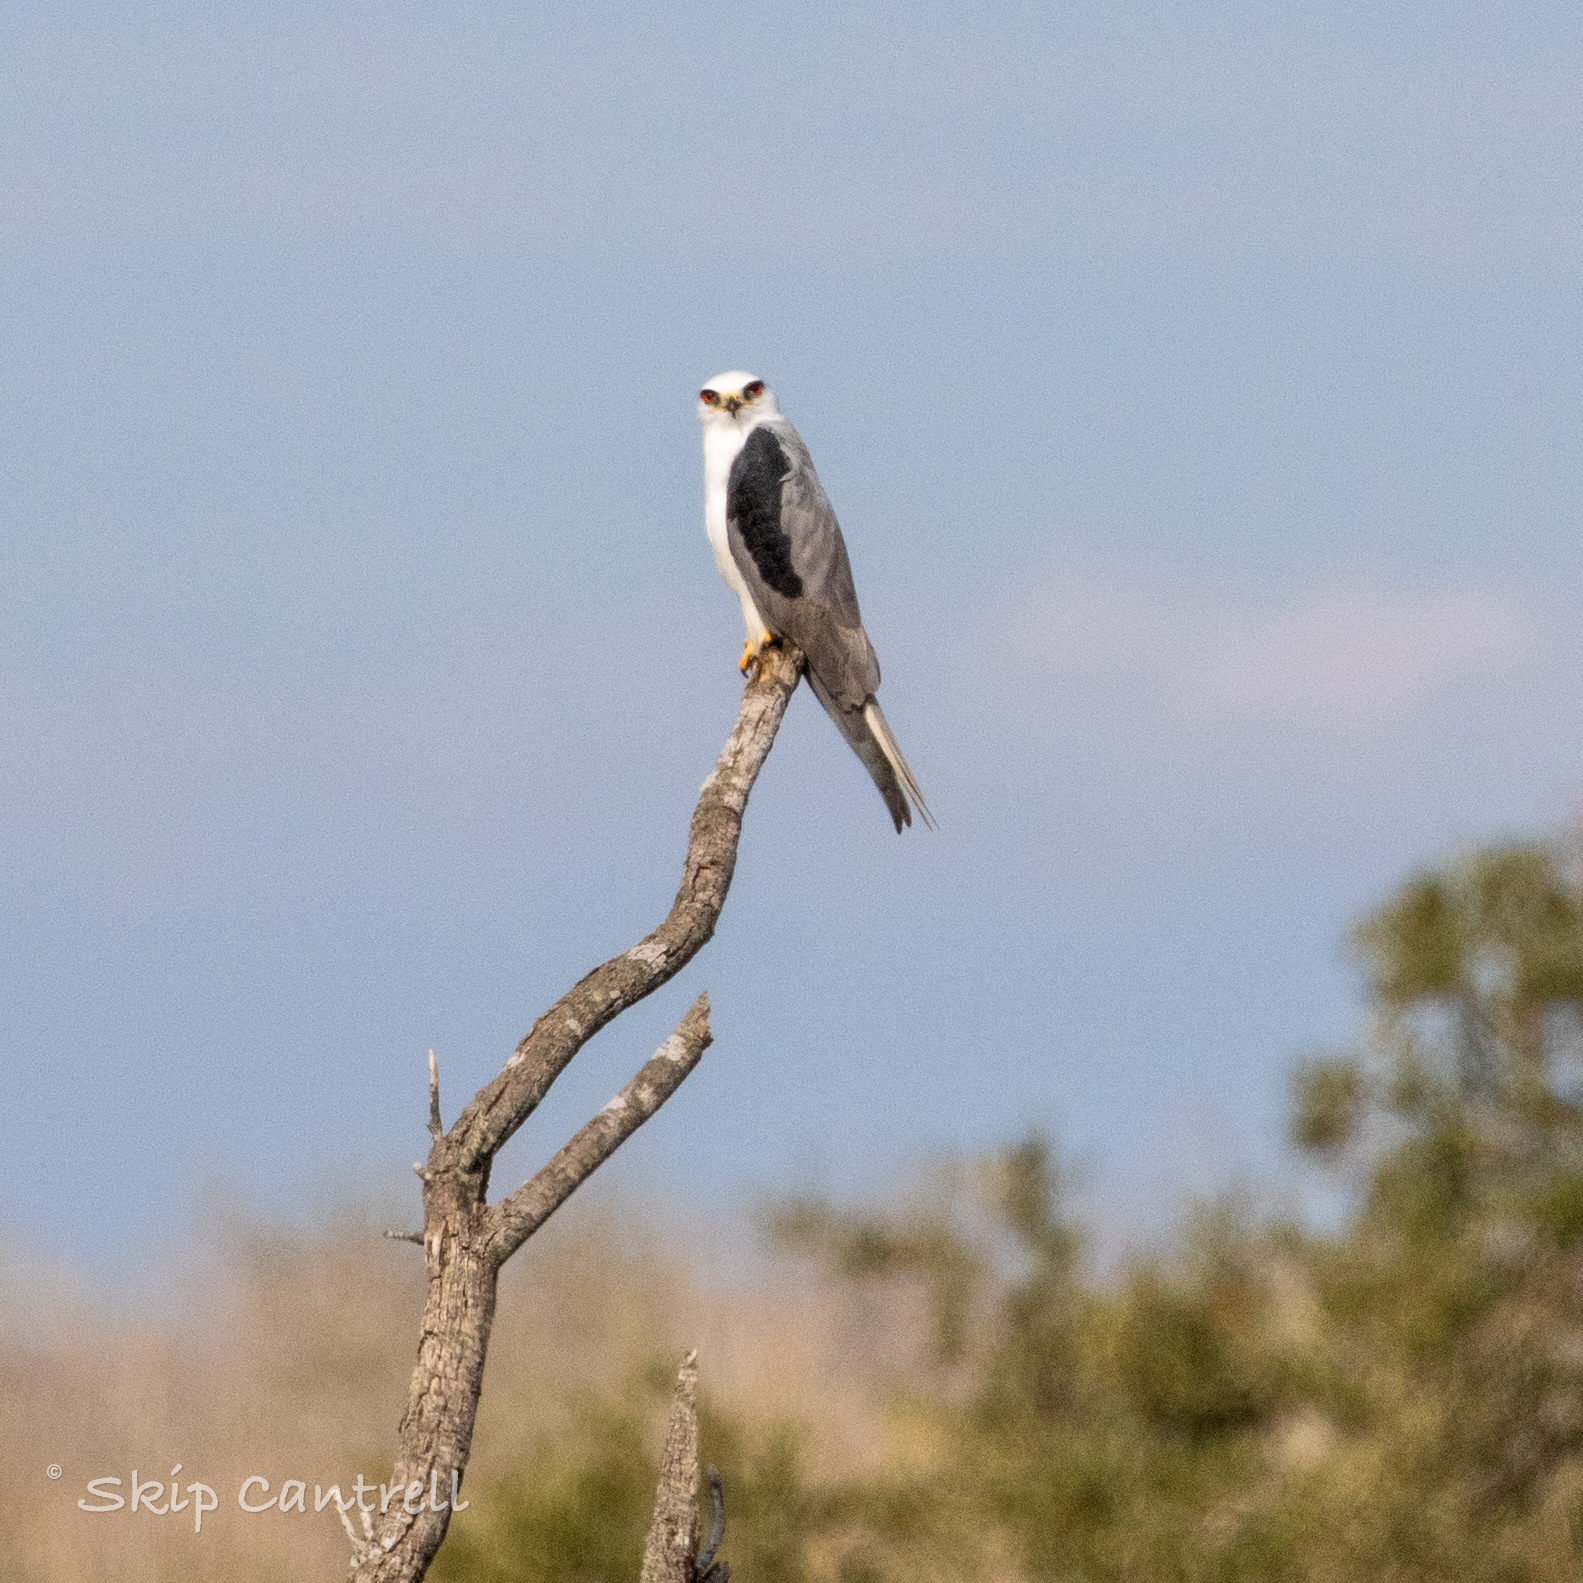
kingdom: Animalia
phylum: Chordata
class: Aves
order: Accipitriformes
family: Accipitridae
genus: Elanus
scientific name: Elanus leucurus
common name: White-tailed kite
